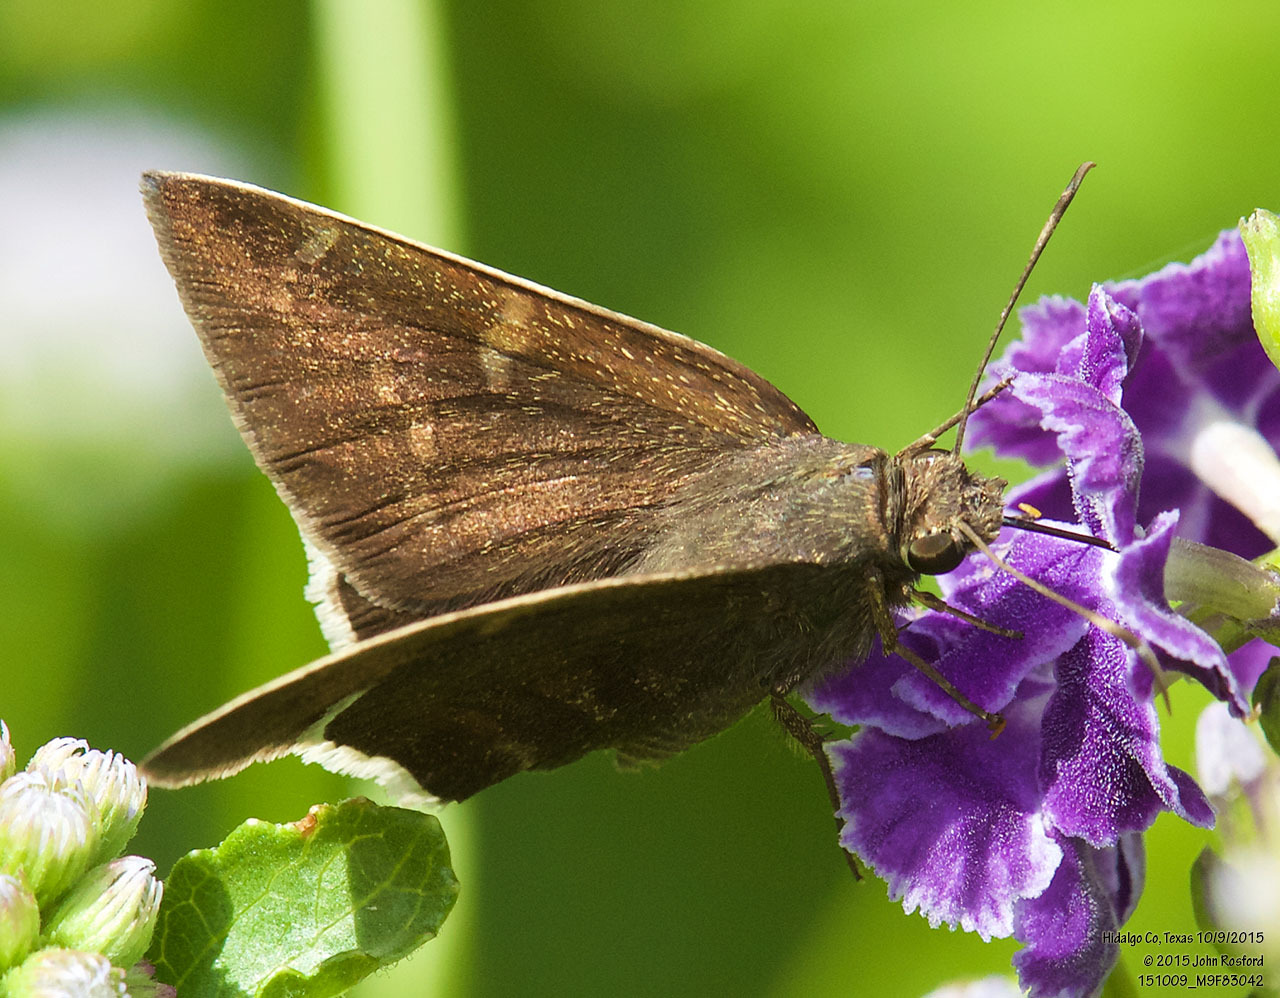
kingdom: Animalia
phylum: Arthropoda
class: Insecta
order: Lepidoptera
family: Hesperiidae
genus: Achalarus
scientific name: Achalarus Murgaria albociliatus
